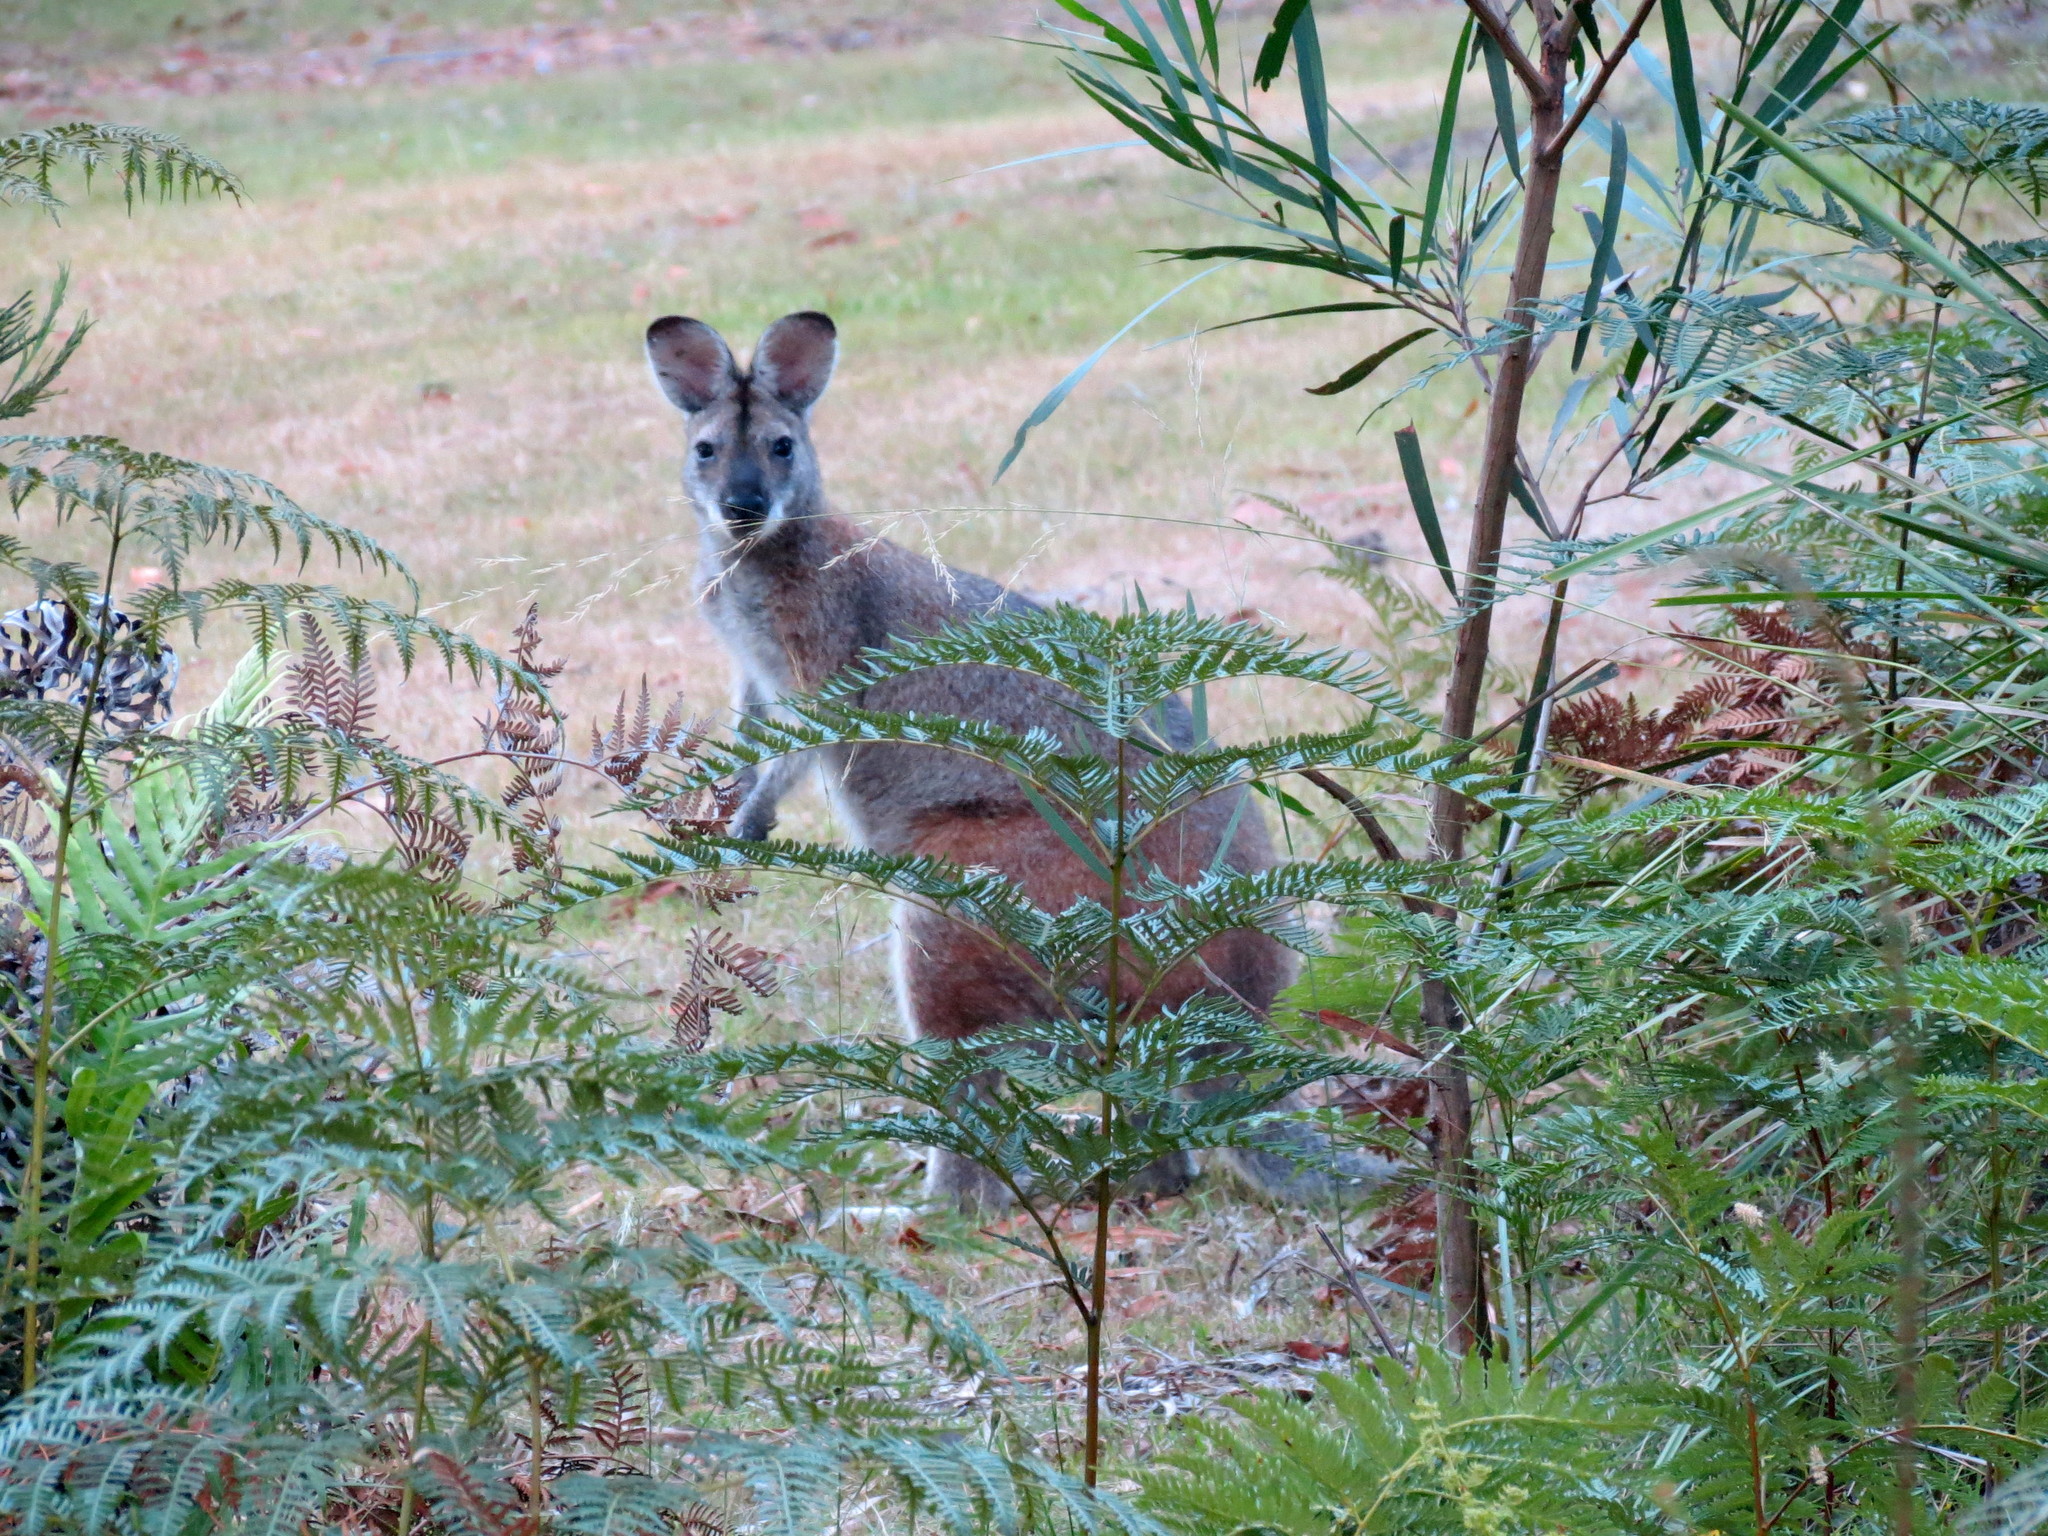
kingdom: Animalia
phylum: Chordata
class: Mammalia
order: Diprotodontia
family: Macropodidae
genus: Notamacropus
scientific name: Notamacropus rufogriseus
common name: Red-necked wallaby
